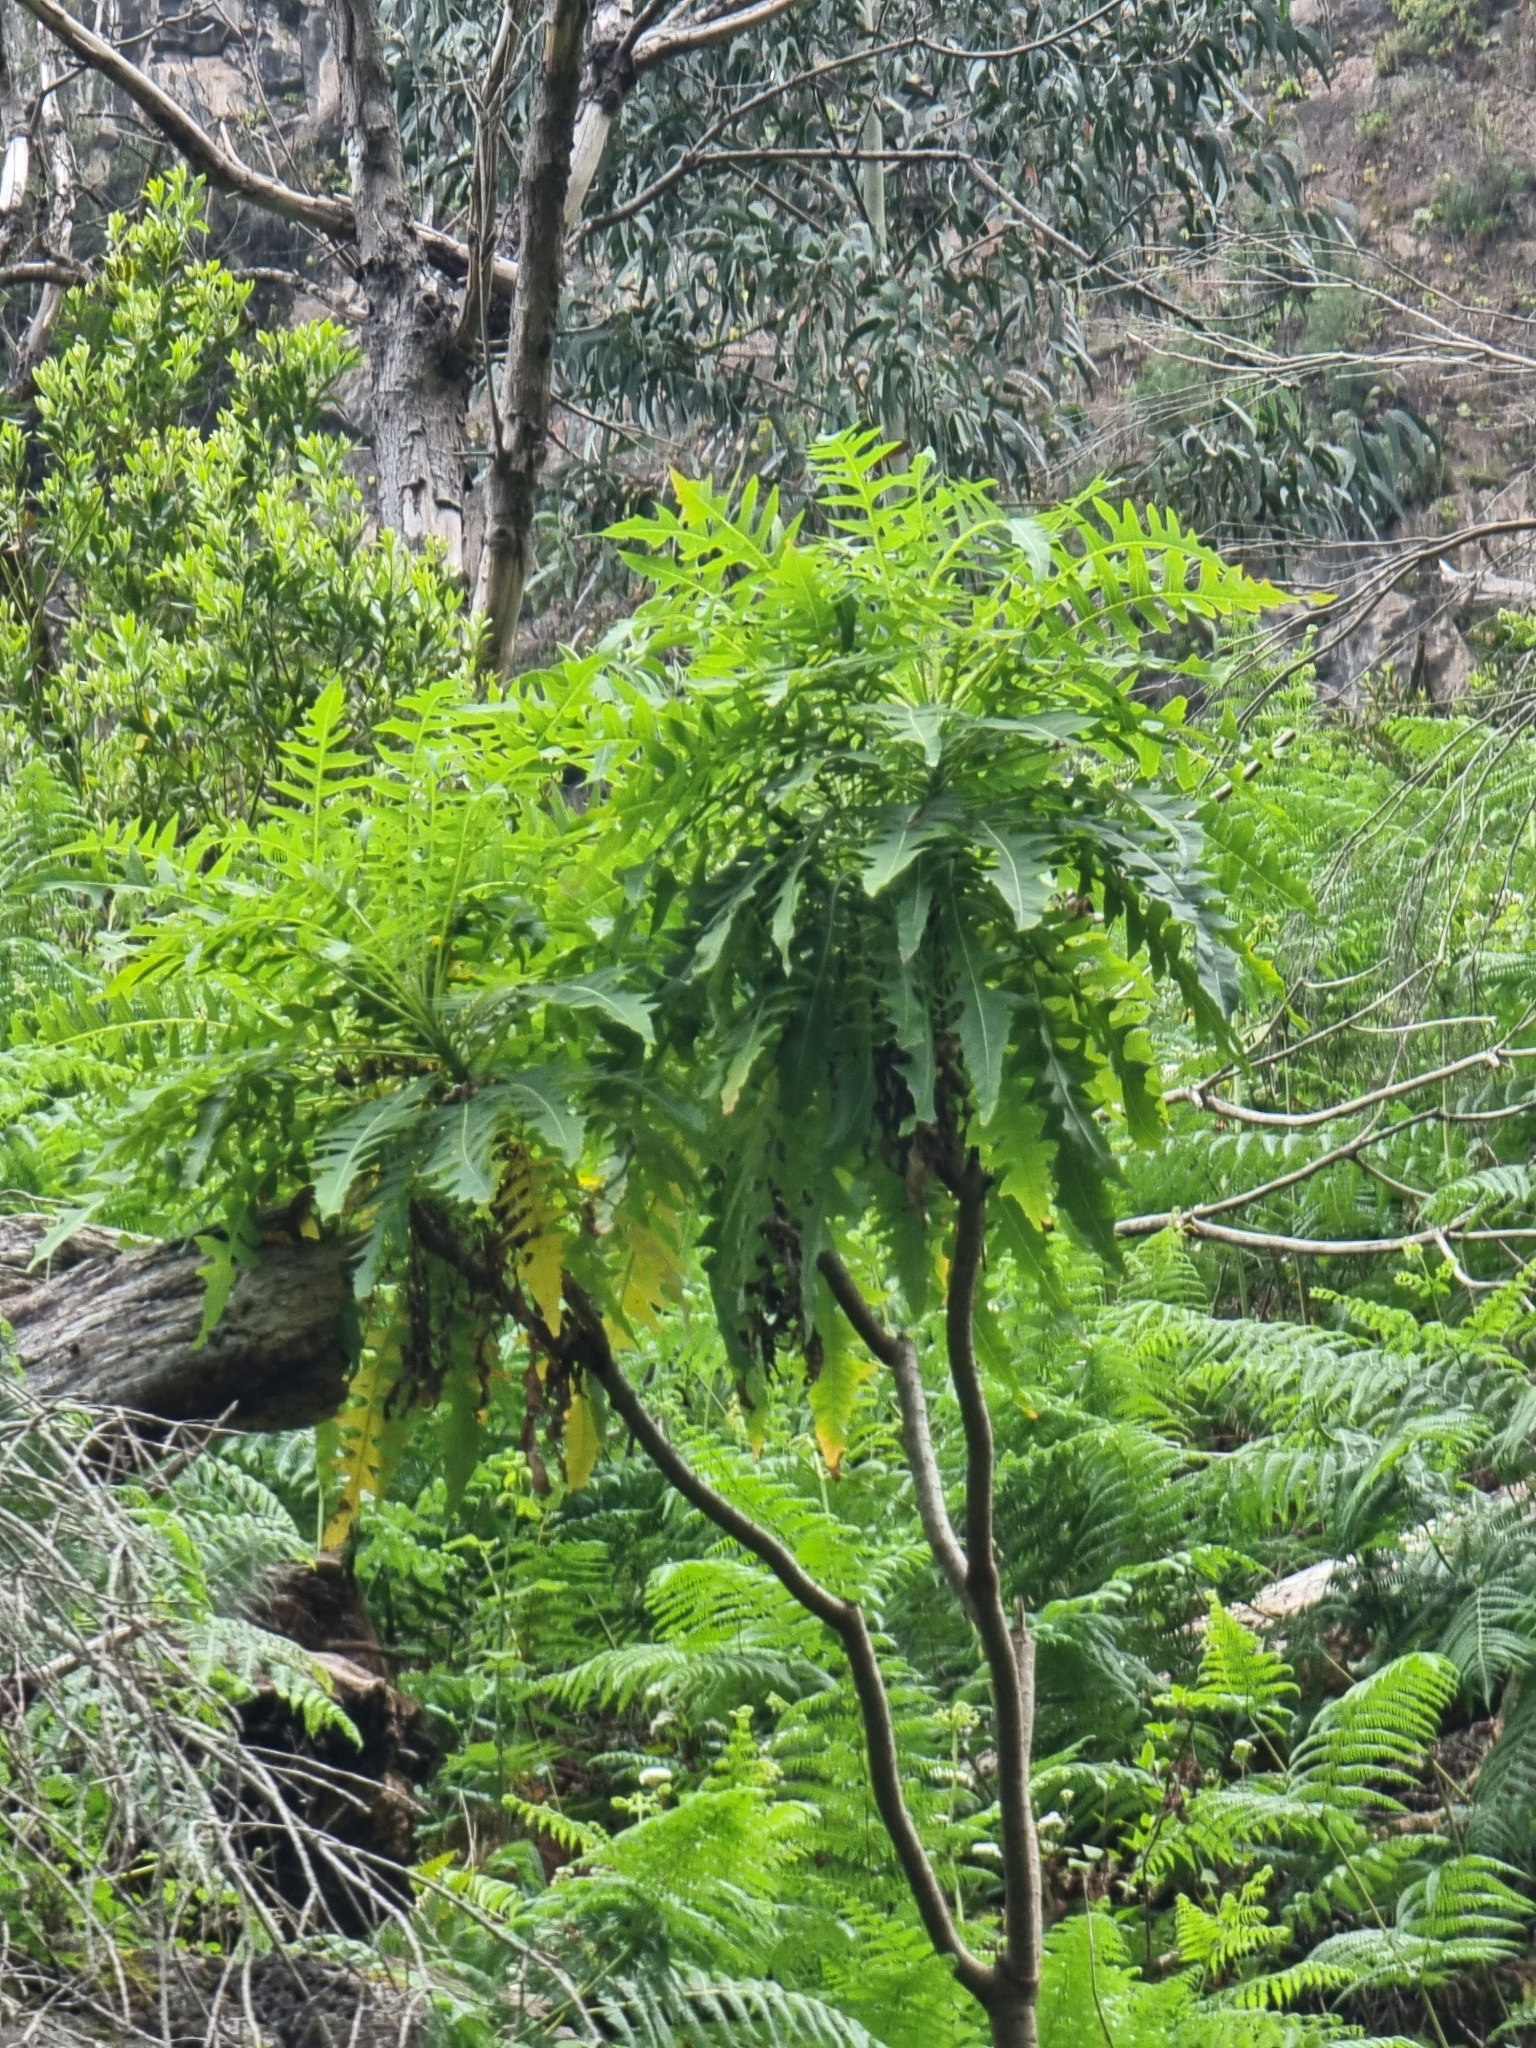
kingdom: Plantae
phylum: Tracheophyta
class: Magnoliopsida
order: Asterales
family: Asteraceae
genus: Sonchus
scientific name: Sonchus pinnatus
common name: Wing-leaved sow-thistle
